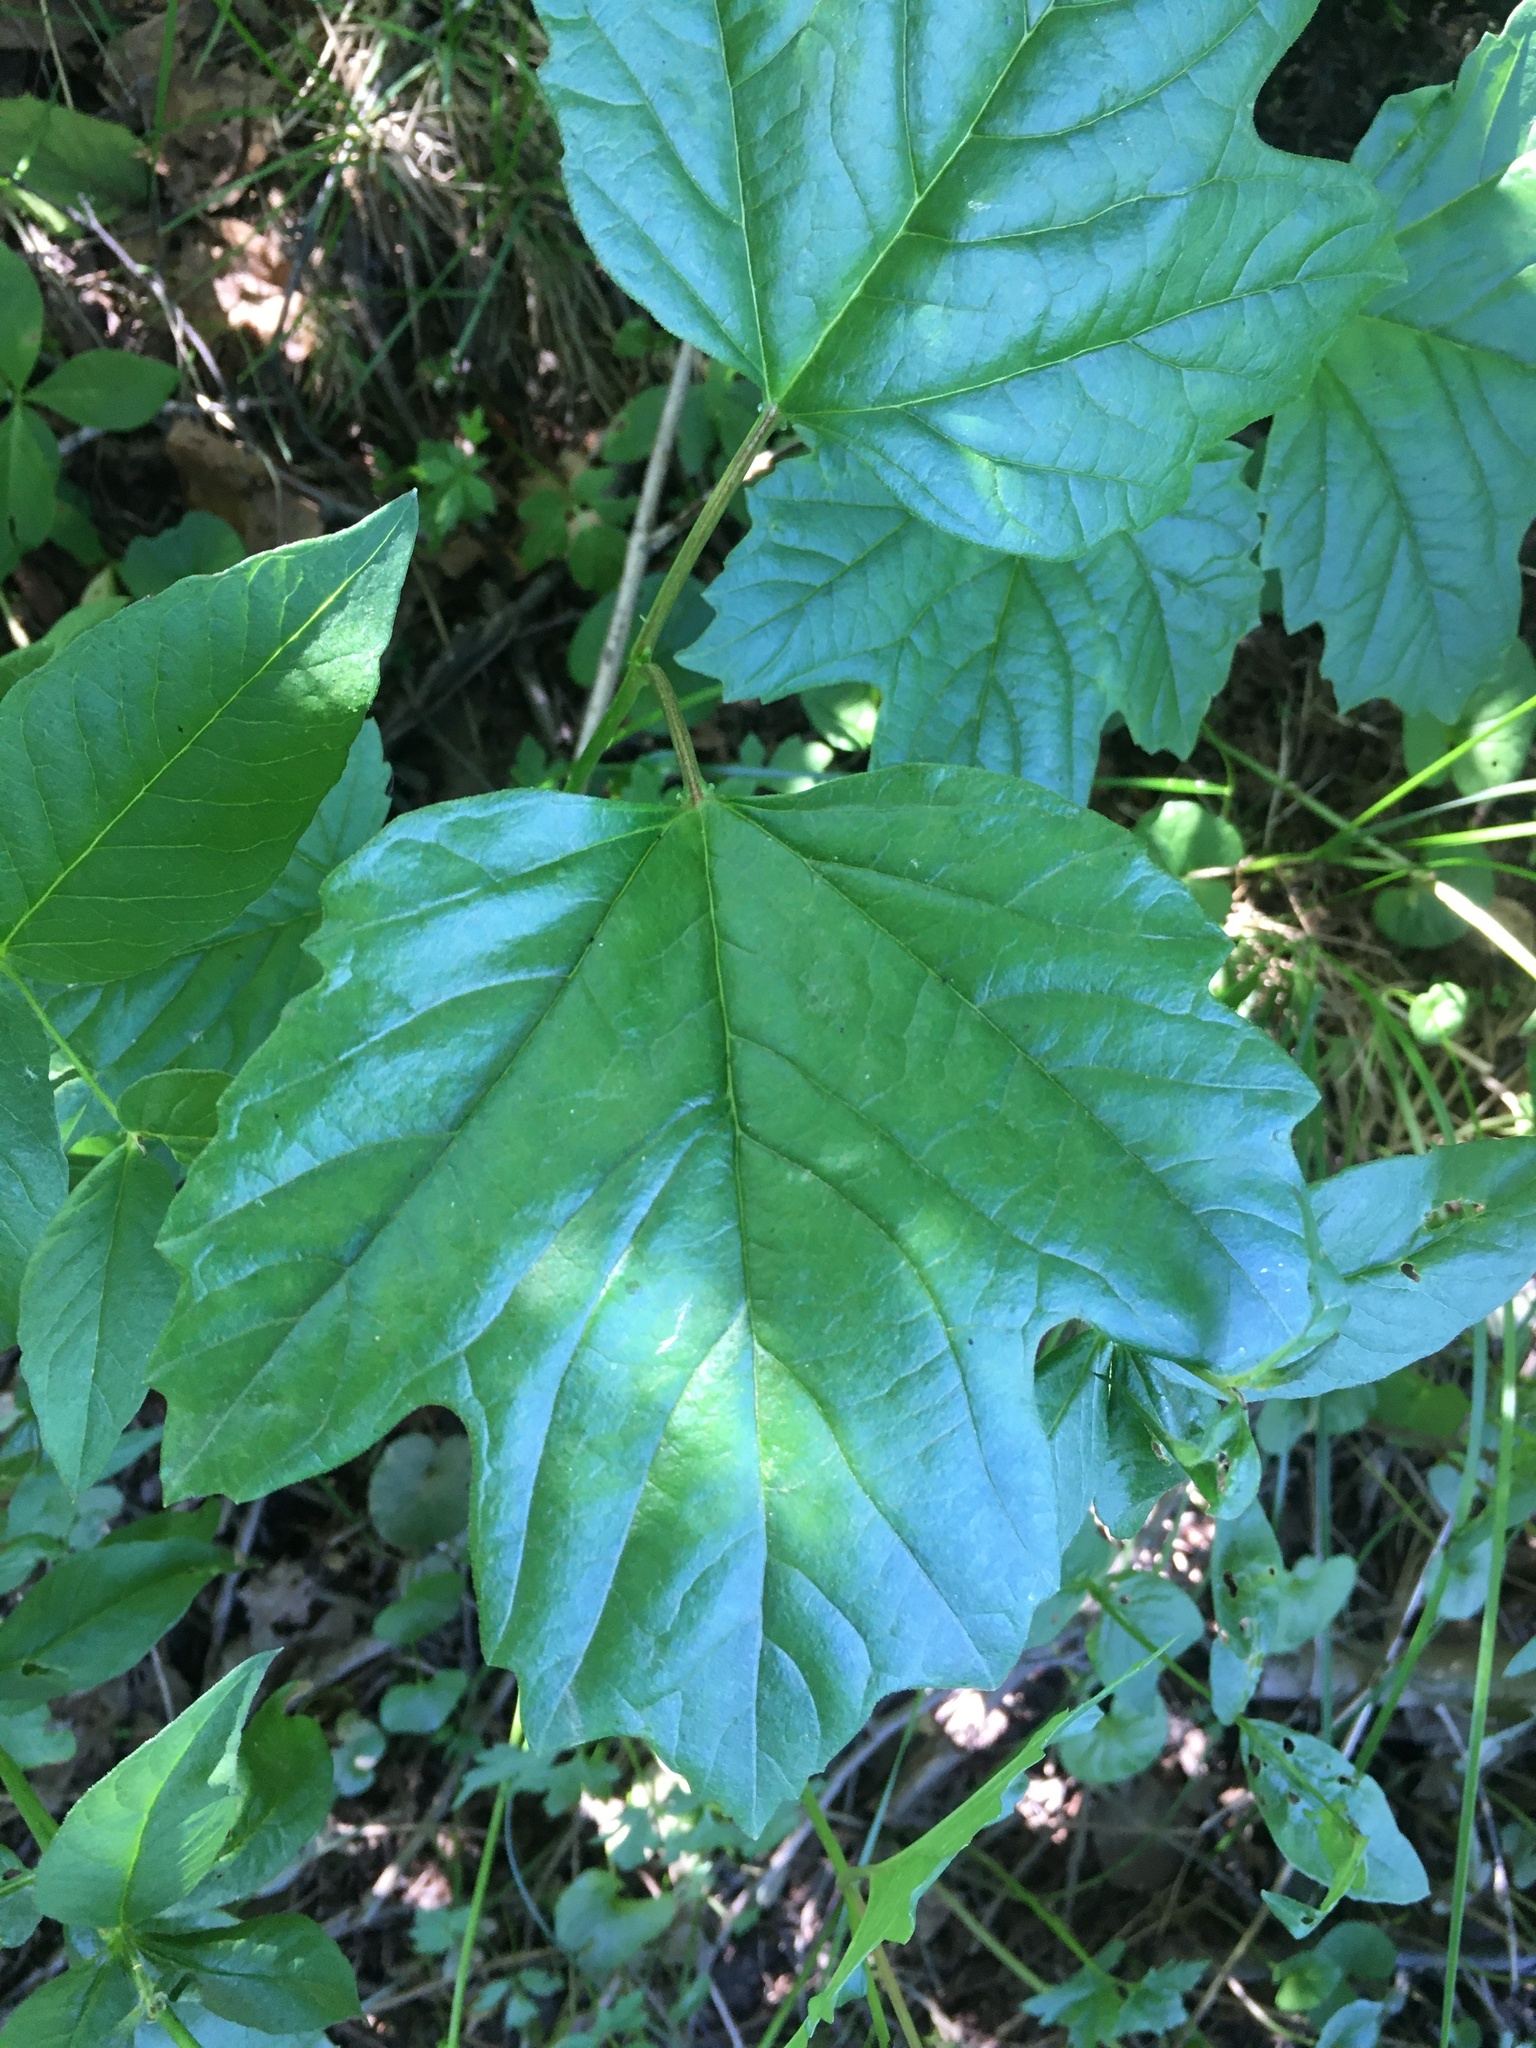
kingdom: Plantae
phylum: Tracheophyta
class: Magnoliopsida
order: Dipsacales
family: Viburnaceae
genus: Viburnum
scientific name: Viburnum opulus
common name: Guelder-rose
